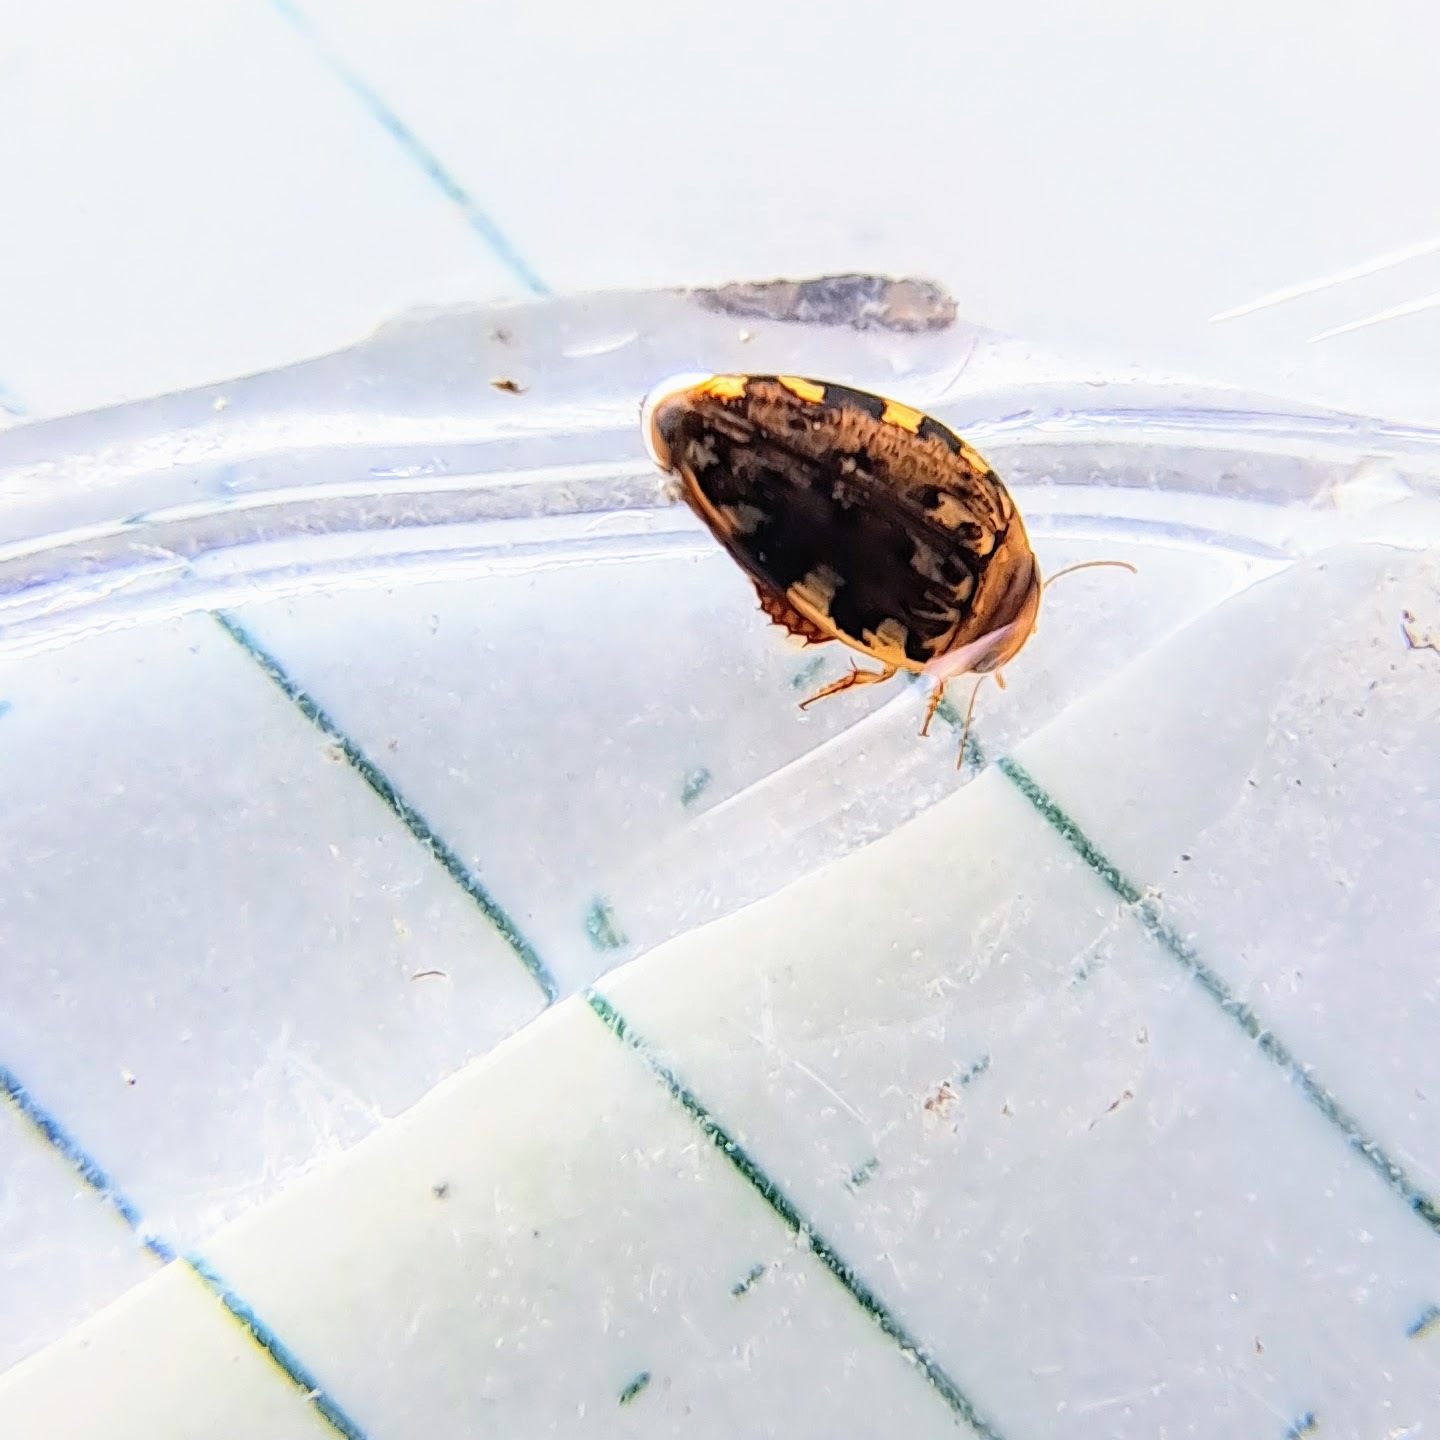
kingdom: Animalia
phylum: Arthropoda
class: Insecta
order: Coleoptera
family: Dytiscidae
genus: Laccophilus
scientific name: Laccophilus maculosus
